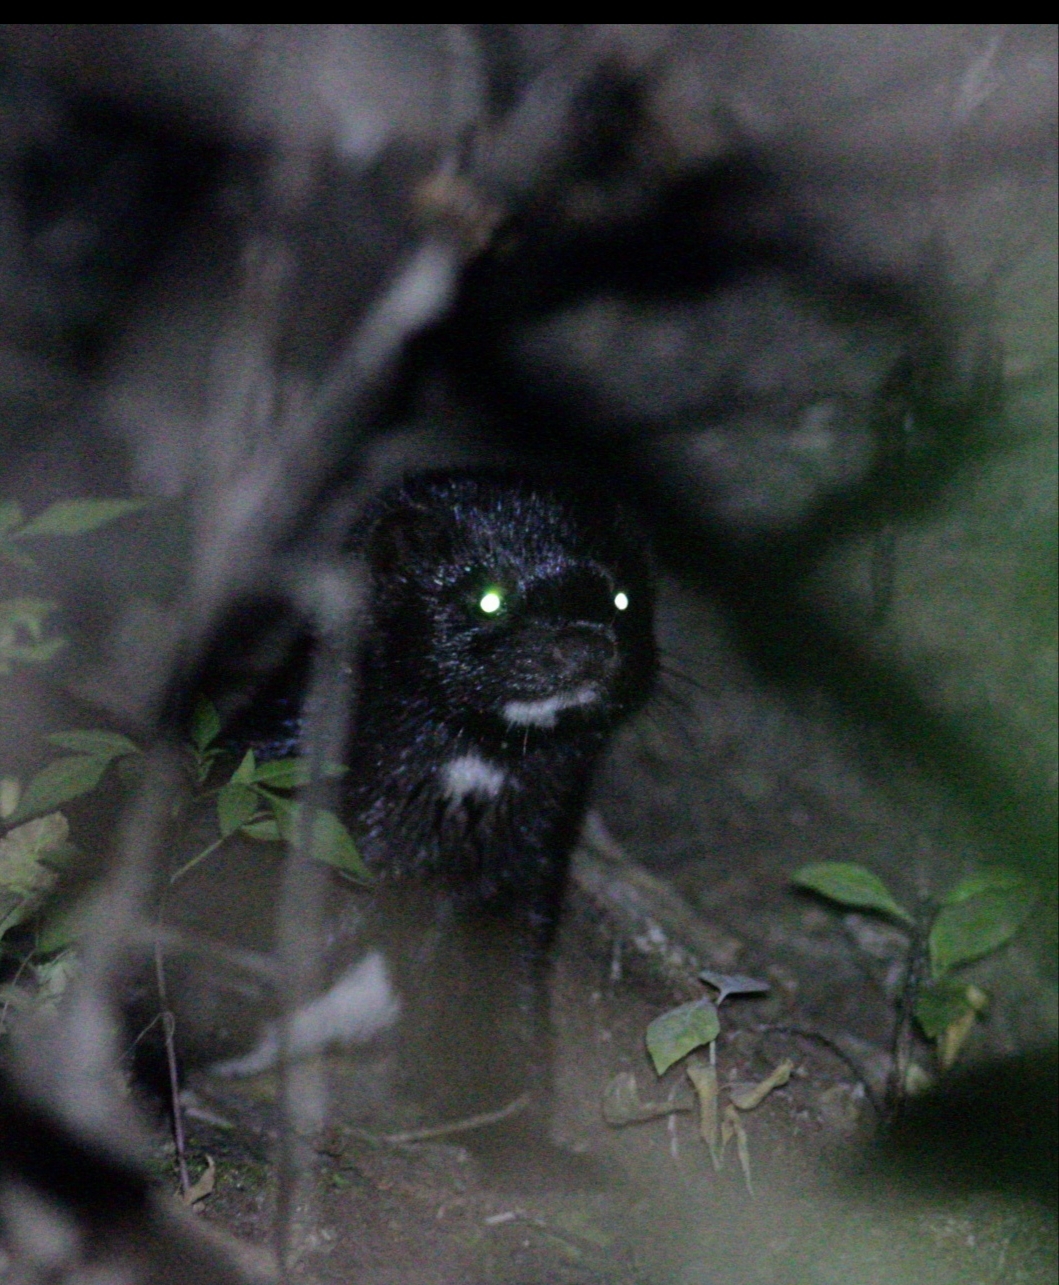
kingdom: Animalia
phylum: Chordata
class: Mammalia
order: Carnivora
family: Mustelidae
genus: Mustela
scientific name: Mustela
